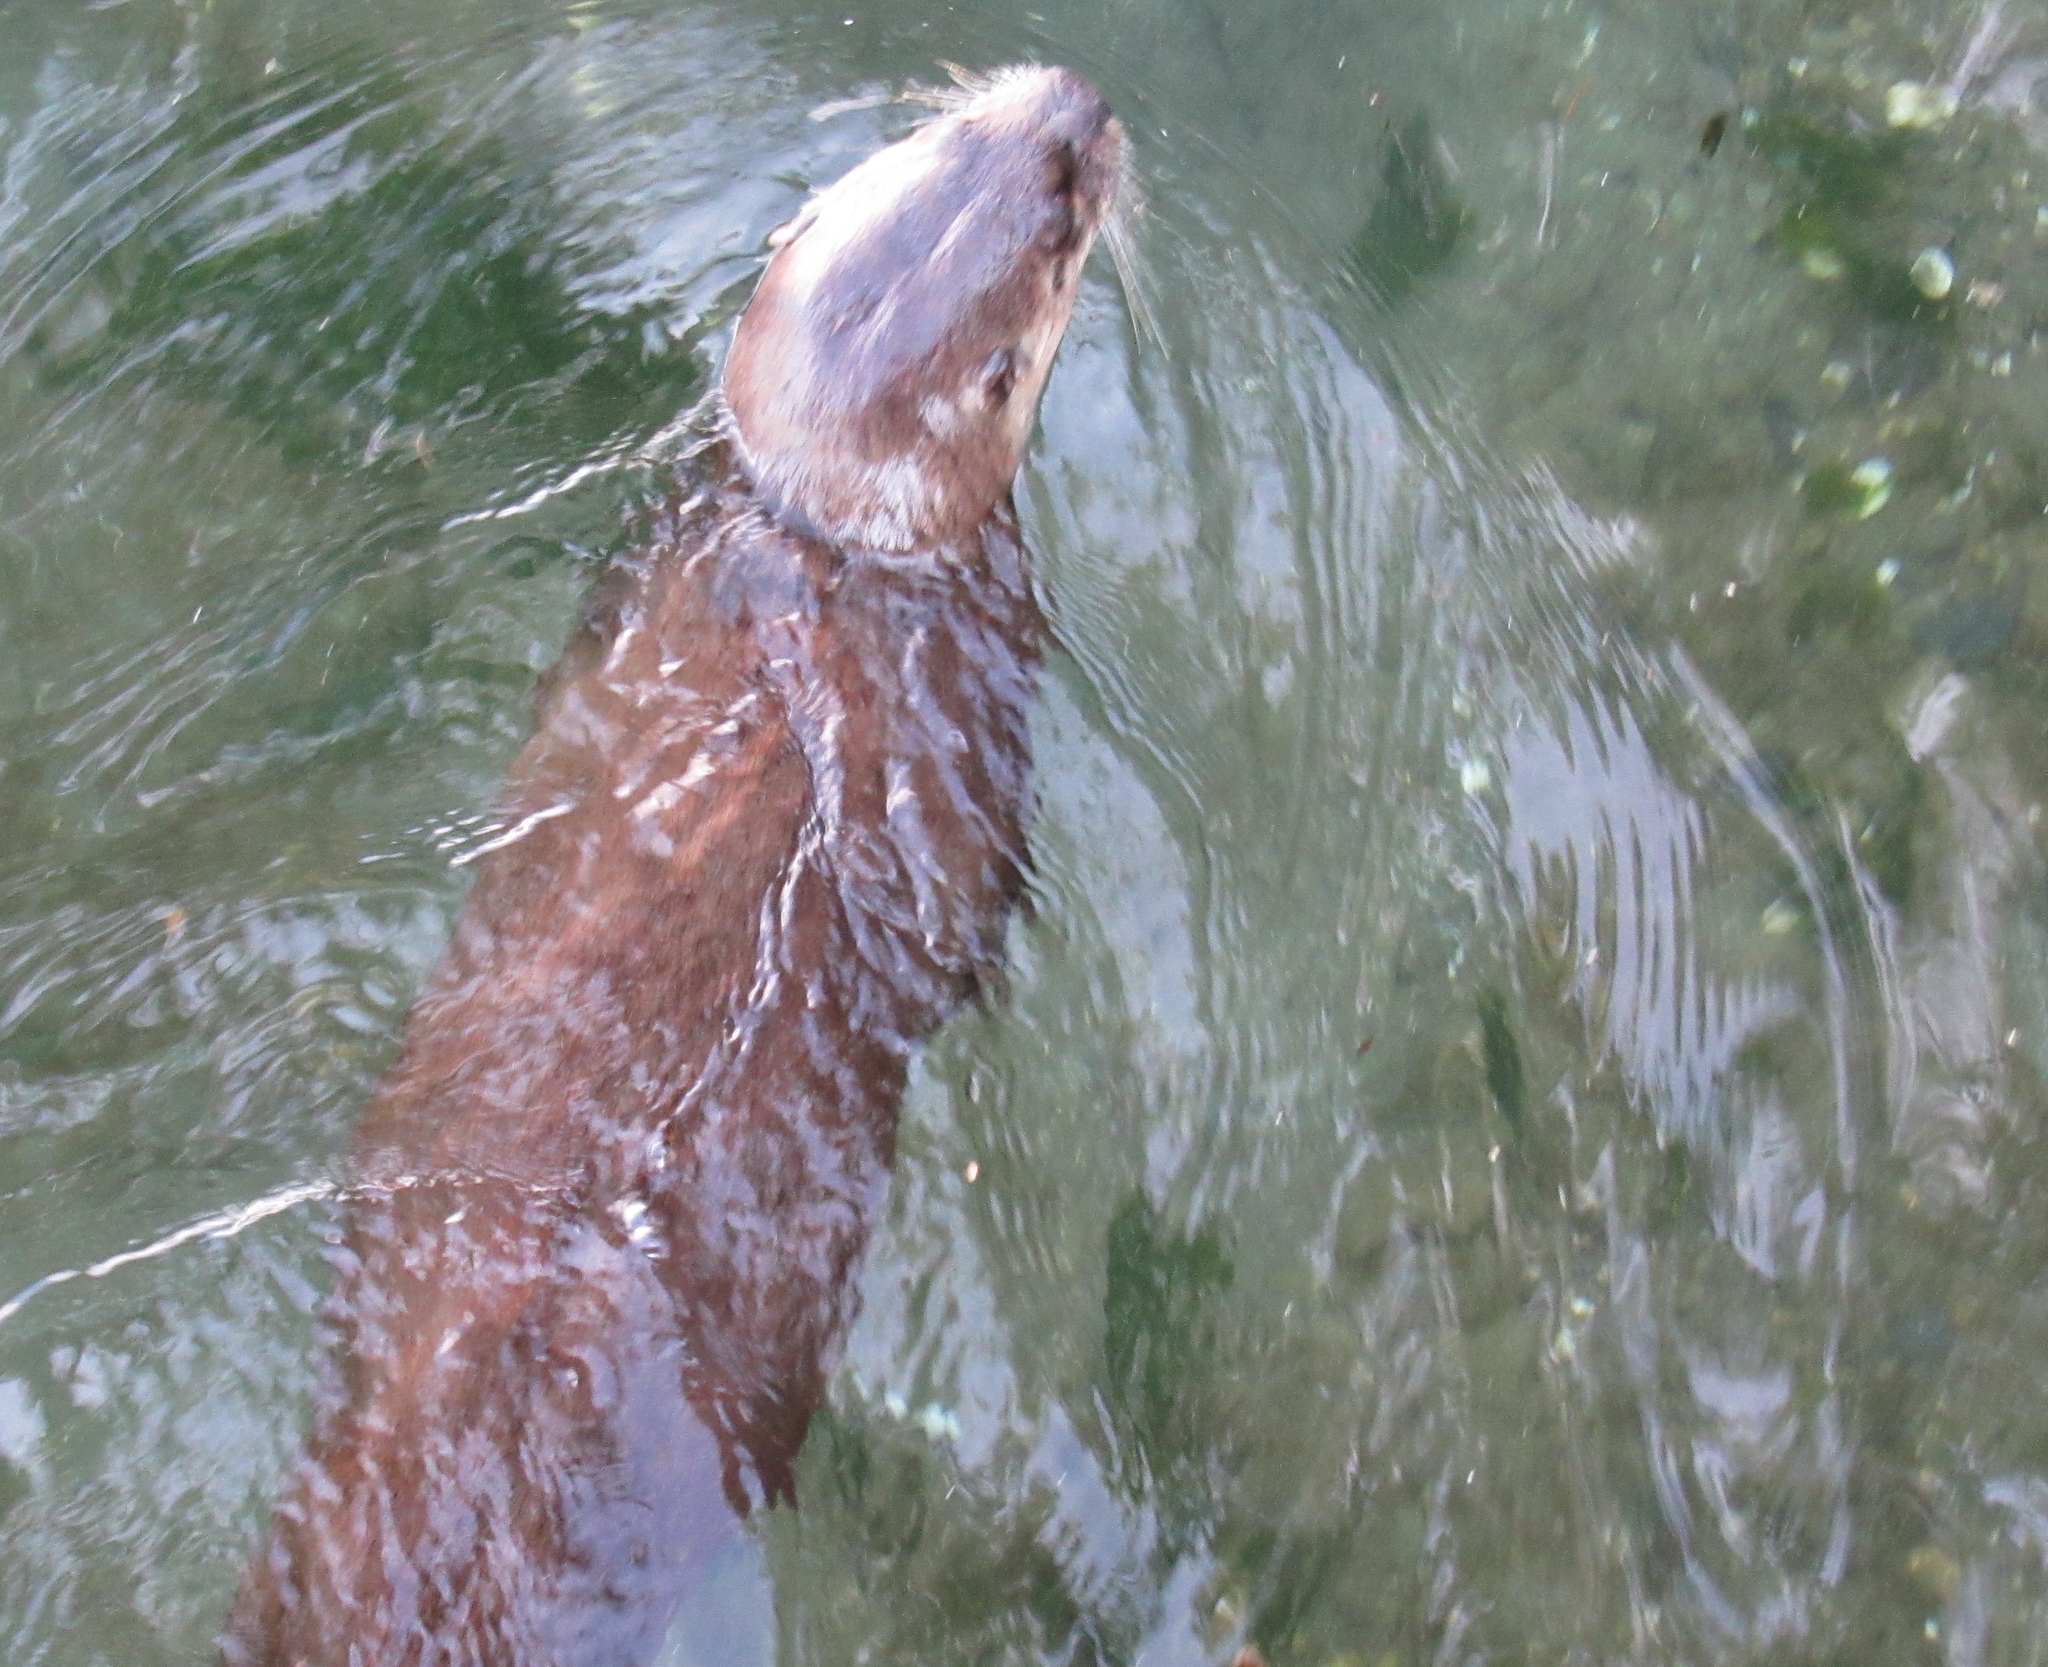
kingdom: Animalia
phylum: Chordata
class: Mammalia
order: Carnivora
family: Mustelidae
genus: Lontra
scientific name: Lontra canadensis
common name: North american river otter
